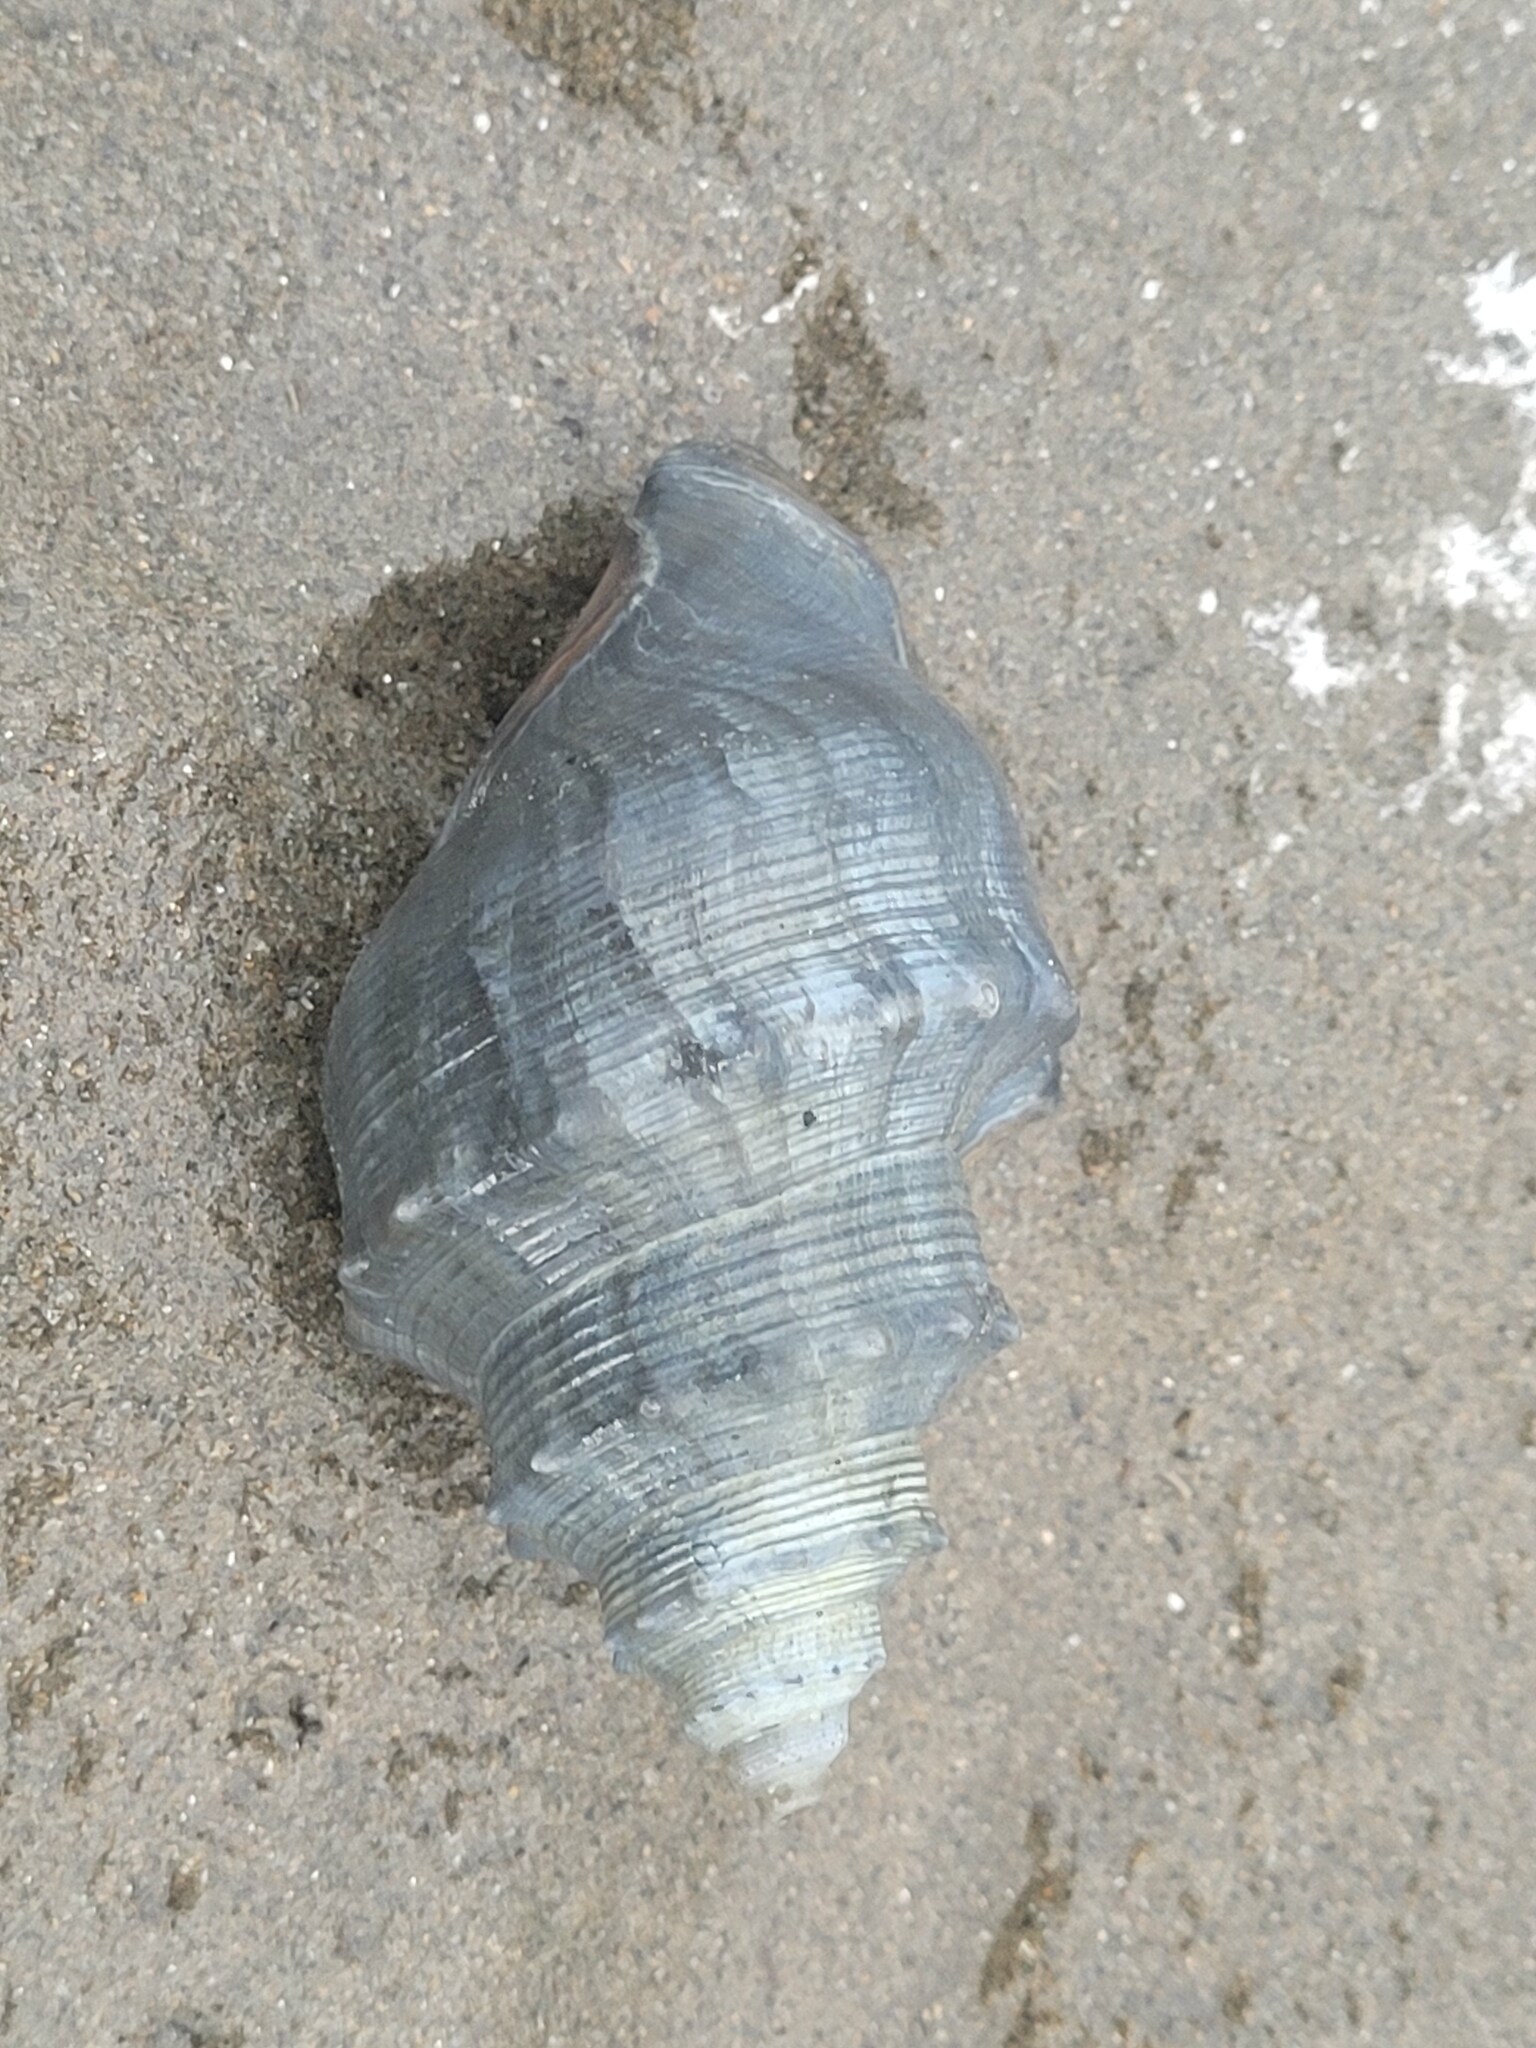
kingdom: Animalia
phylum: Mollusca
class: Gastropoda
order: Littorinimorpha
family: Struthiolariidae
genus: Struthiolaria
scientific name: Struthiolaria papulosa
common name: Large ostrich foot
